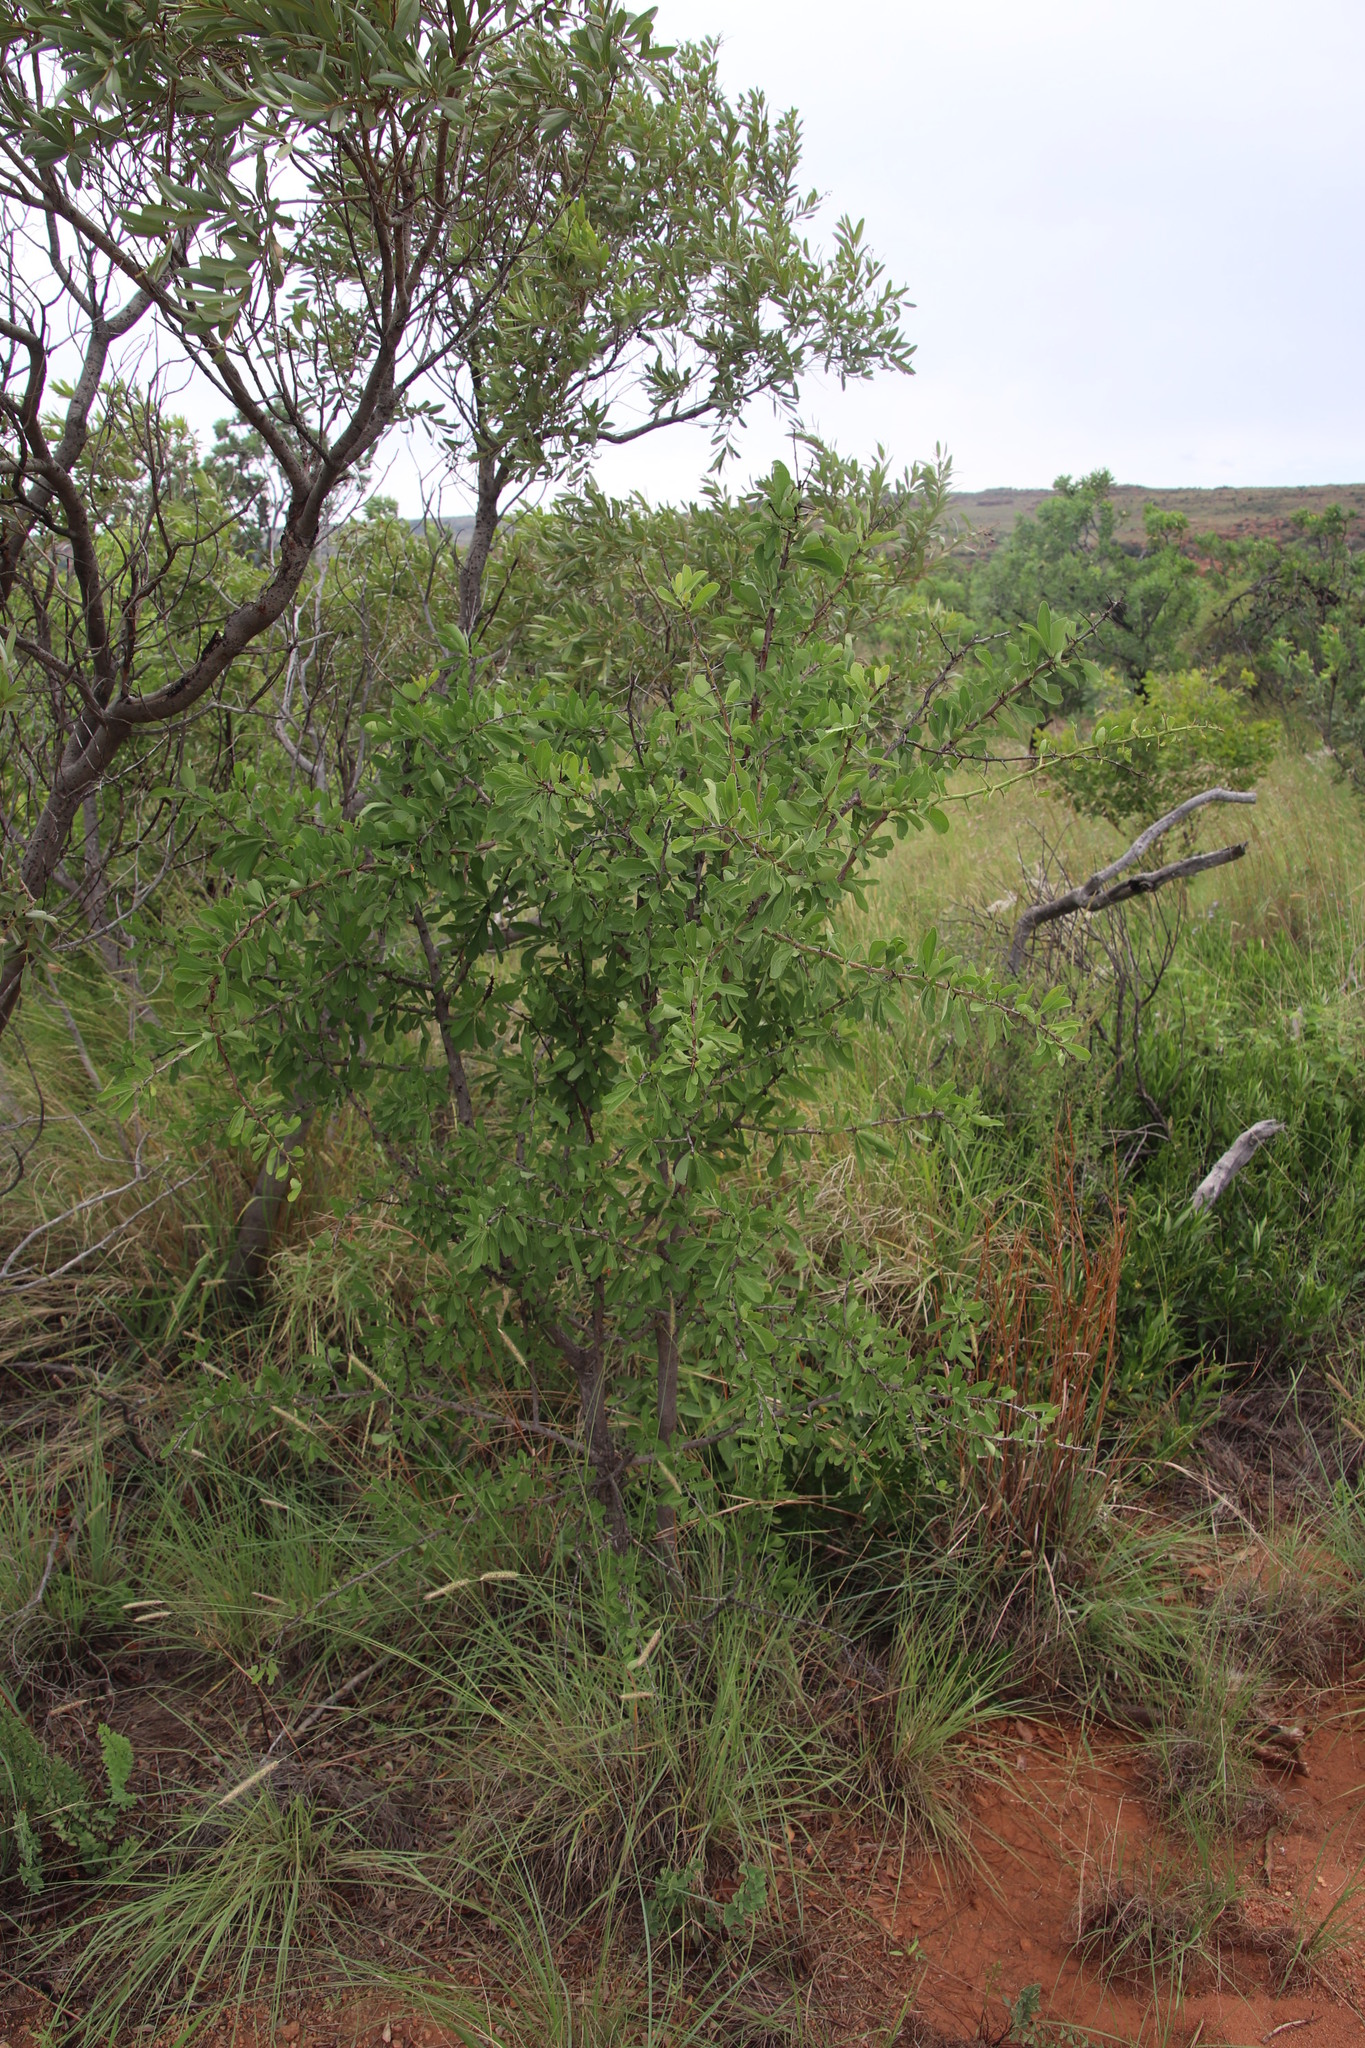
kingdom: Plantae
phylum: Tracheophyta
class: Magnoliopsida
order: Celastrales
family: Celastraceae
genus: Gymnosporia
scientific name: Gymnosporia glaucophylla
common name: Blue spike-thorn
